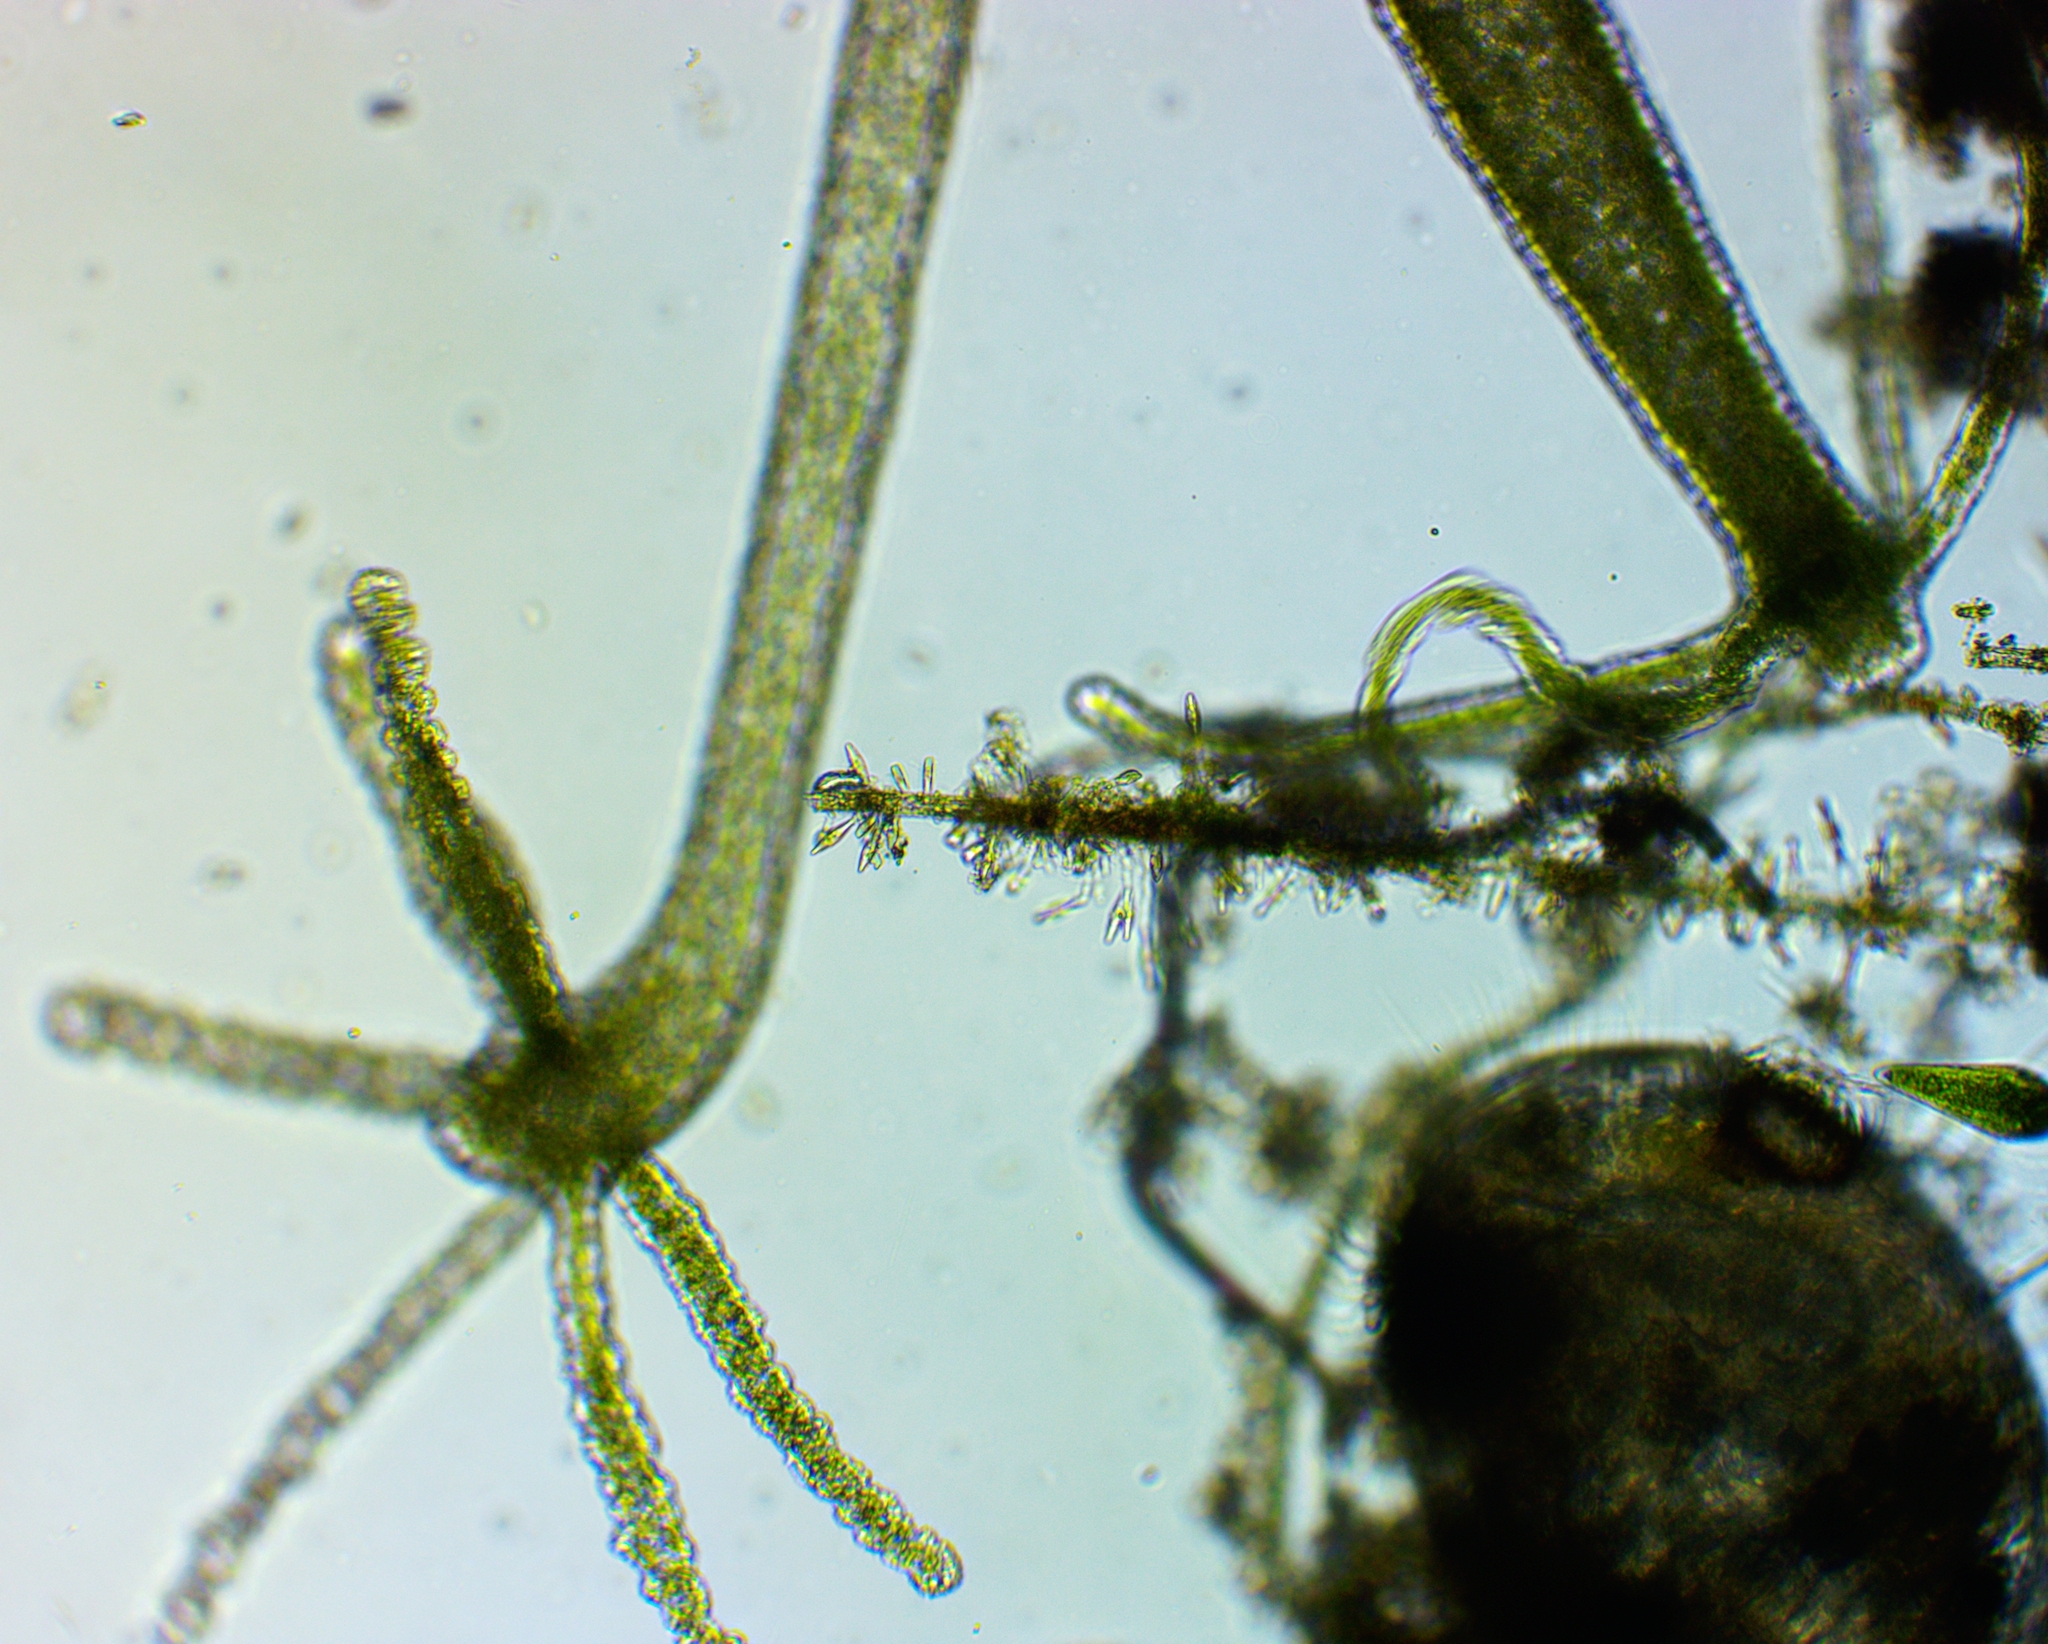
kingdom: Animalia
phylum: Cnidaria
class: Hydrozoa
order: Anthoathecata
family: Hydridae
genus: Hydra
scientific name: Hydra viridissima
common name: Green hydra
